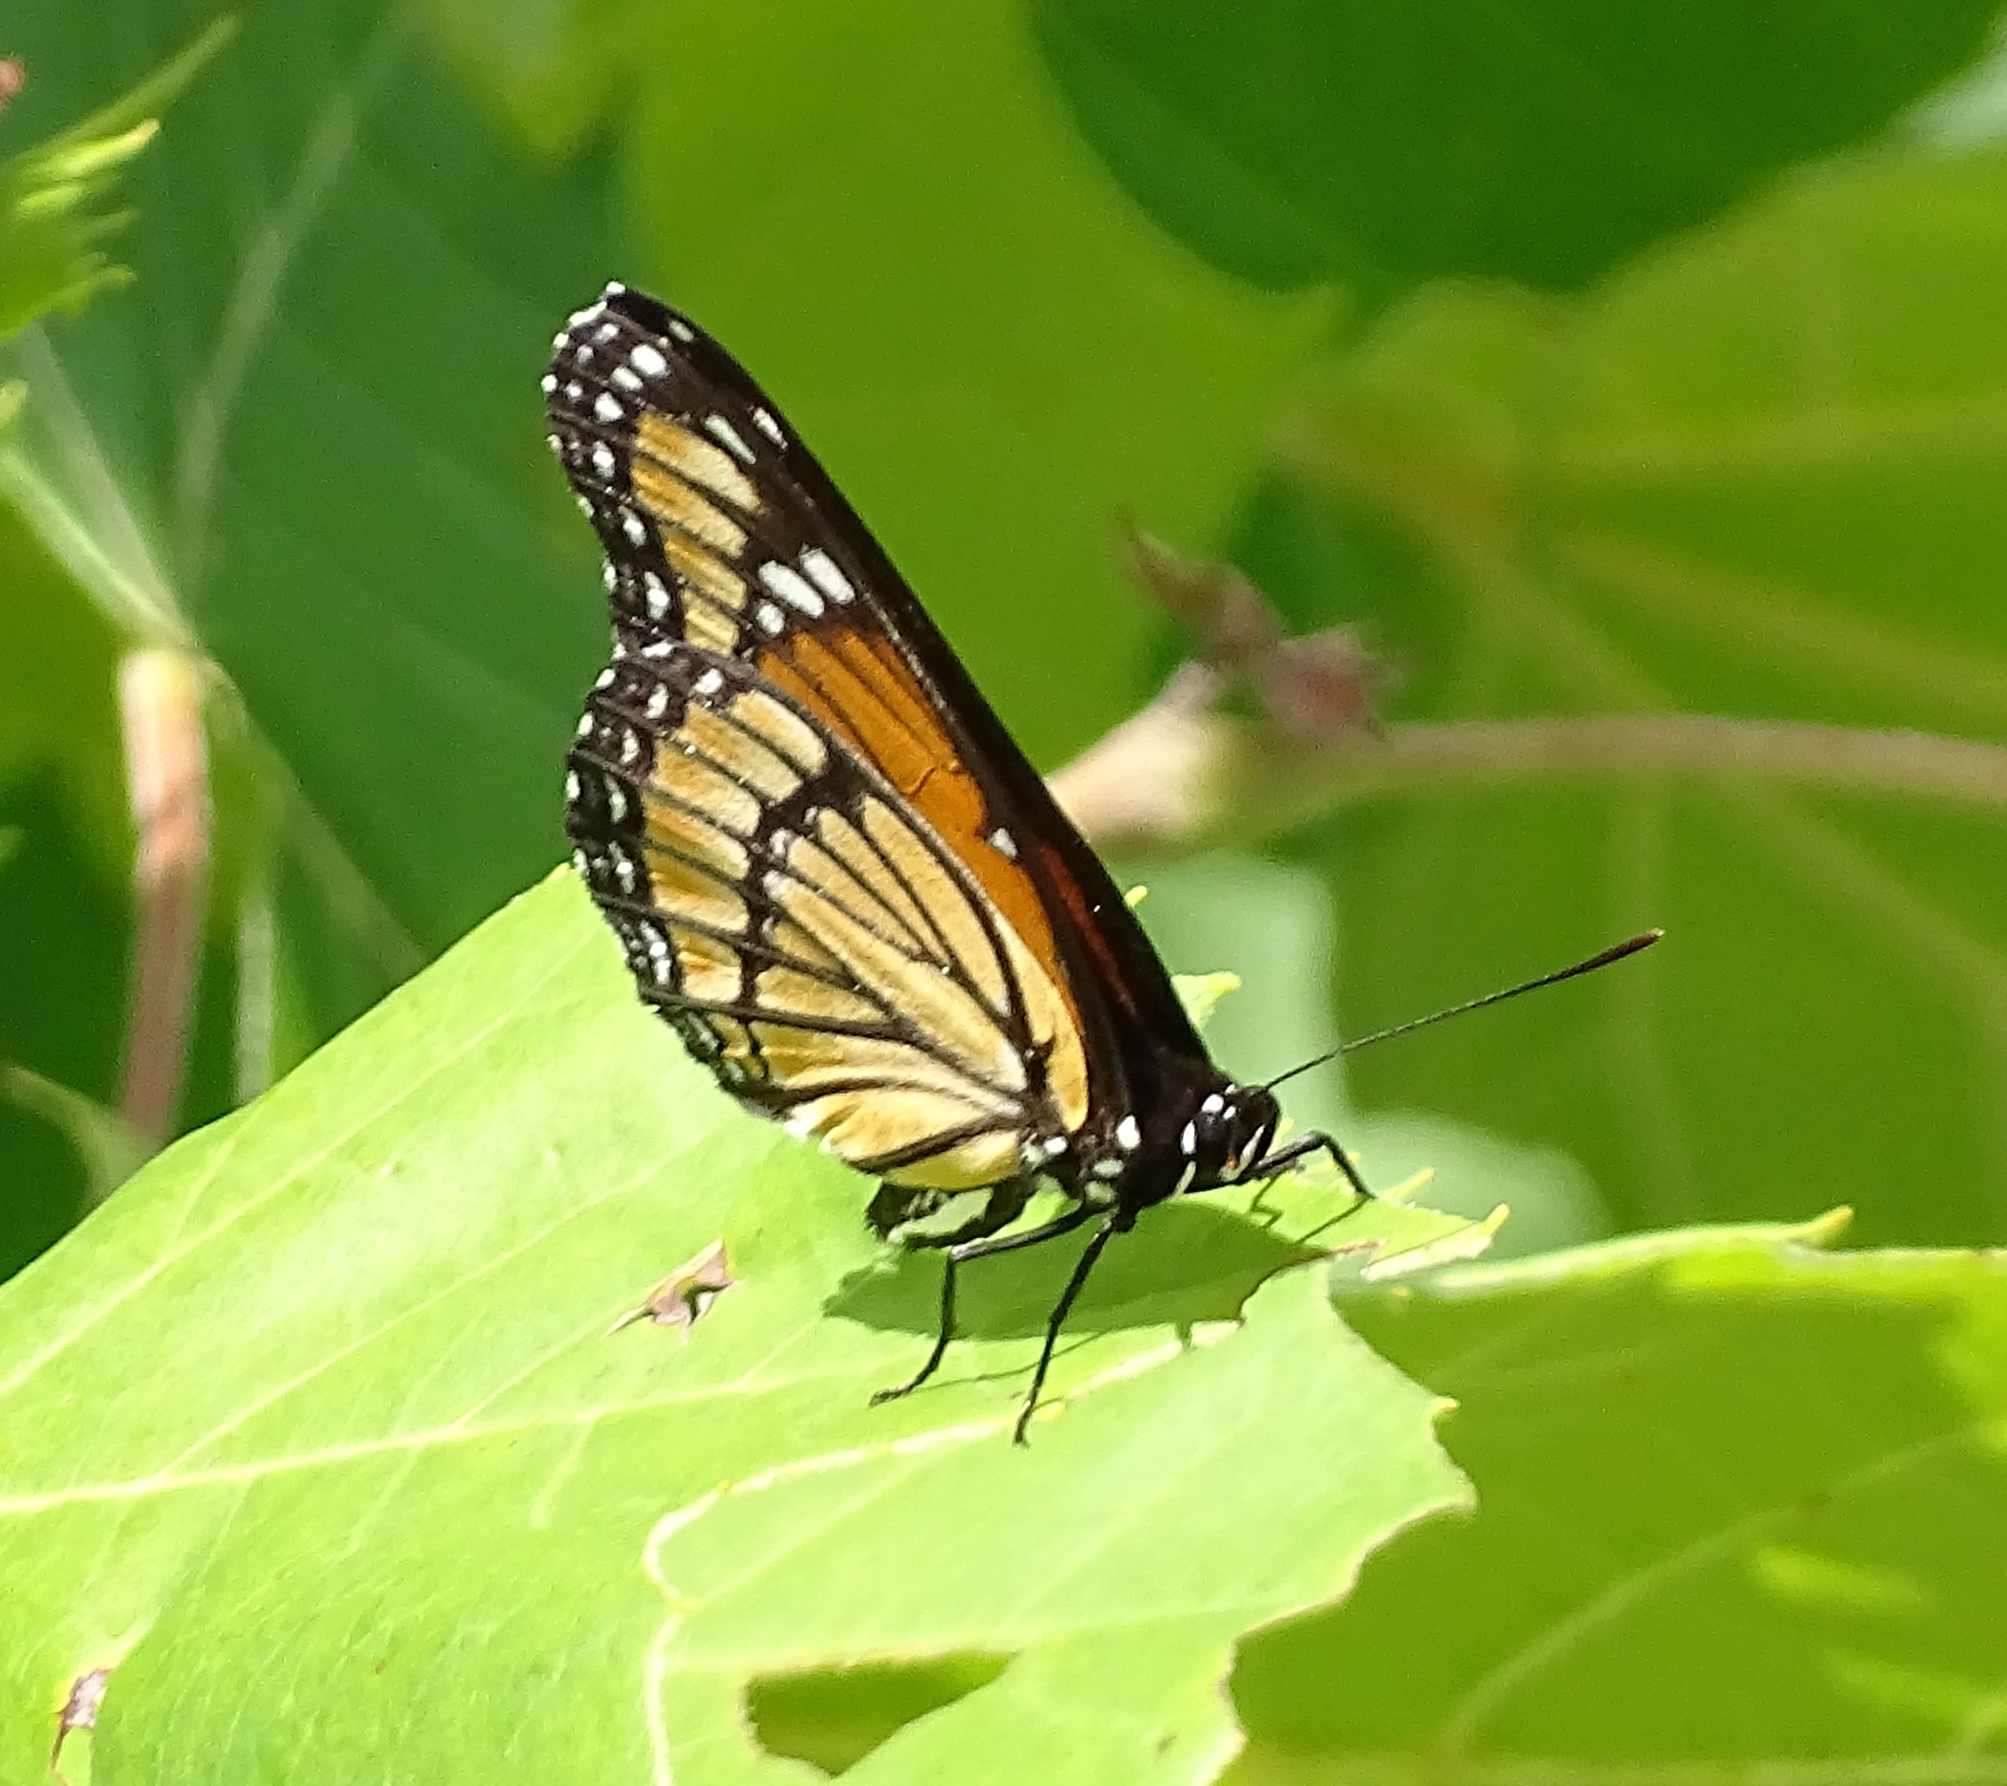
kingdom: Animalia
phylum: Arthropoda
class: Insecta
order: Lepidoptera
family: Nymphalidae
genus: Limenitis
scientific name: Limenitis archippus
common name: Viceroy
